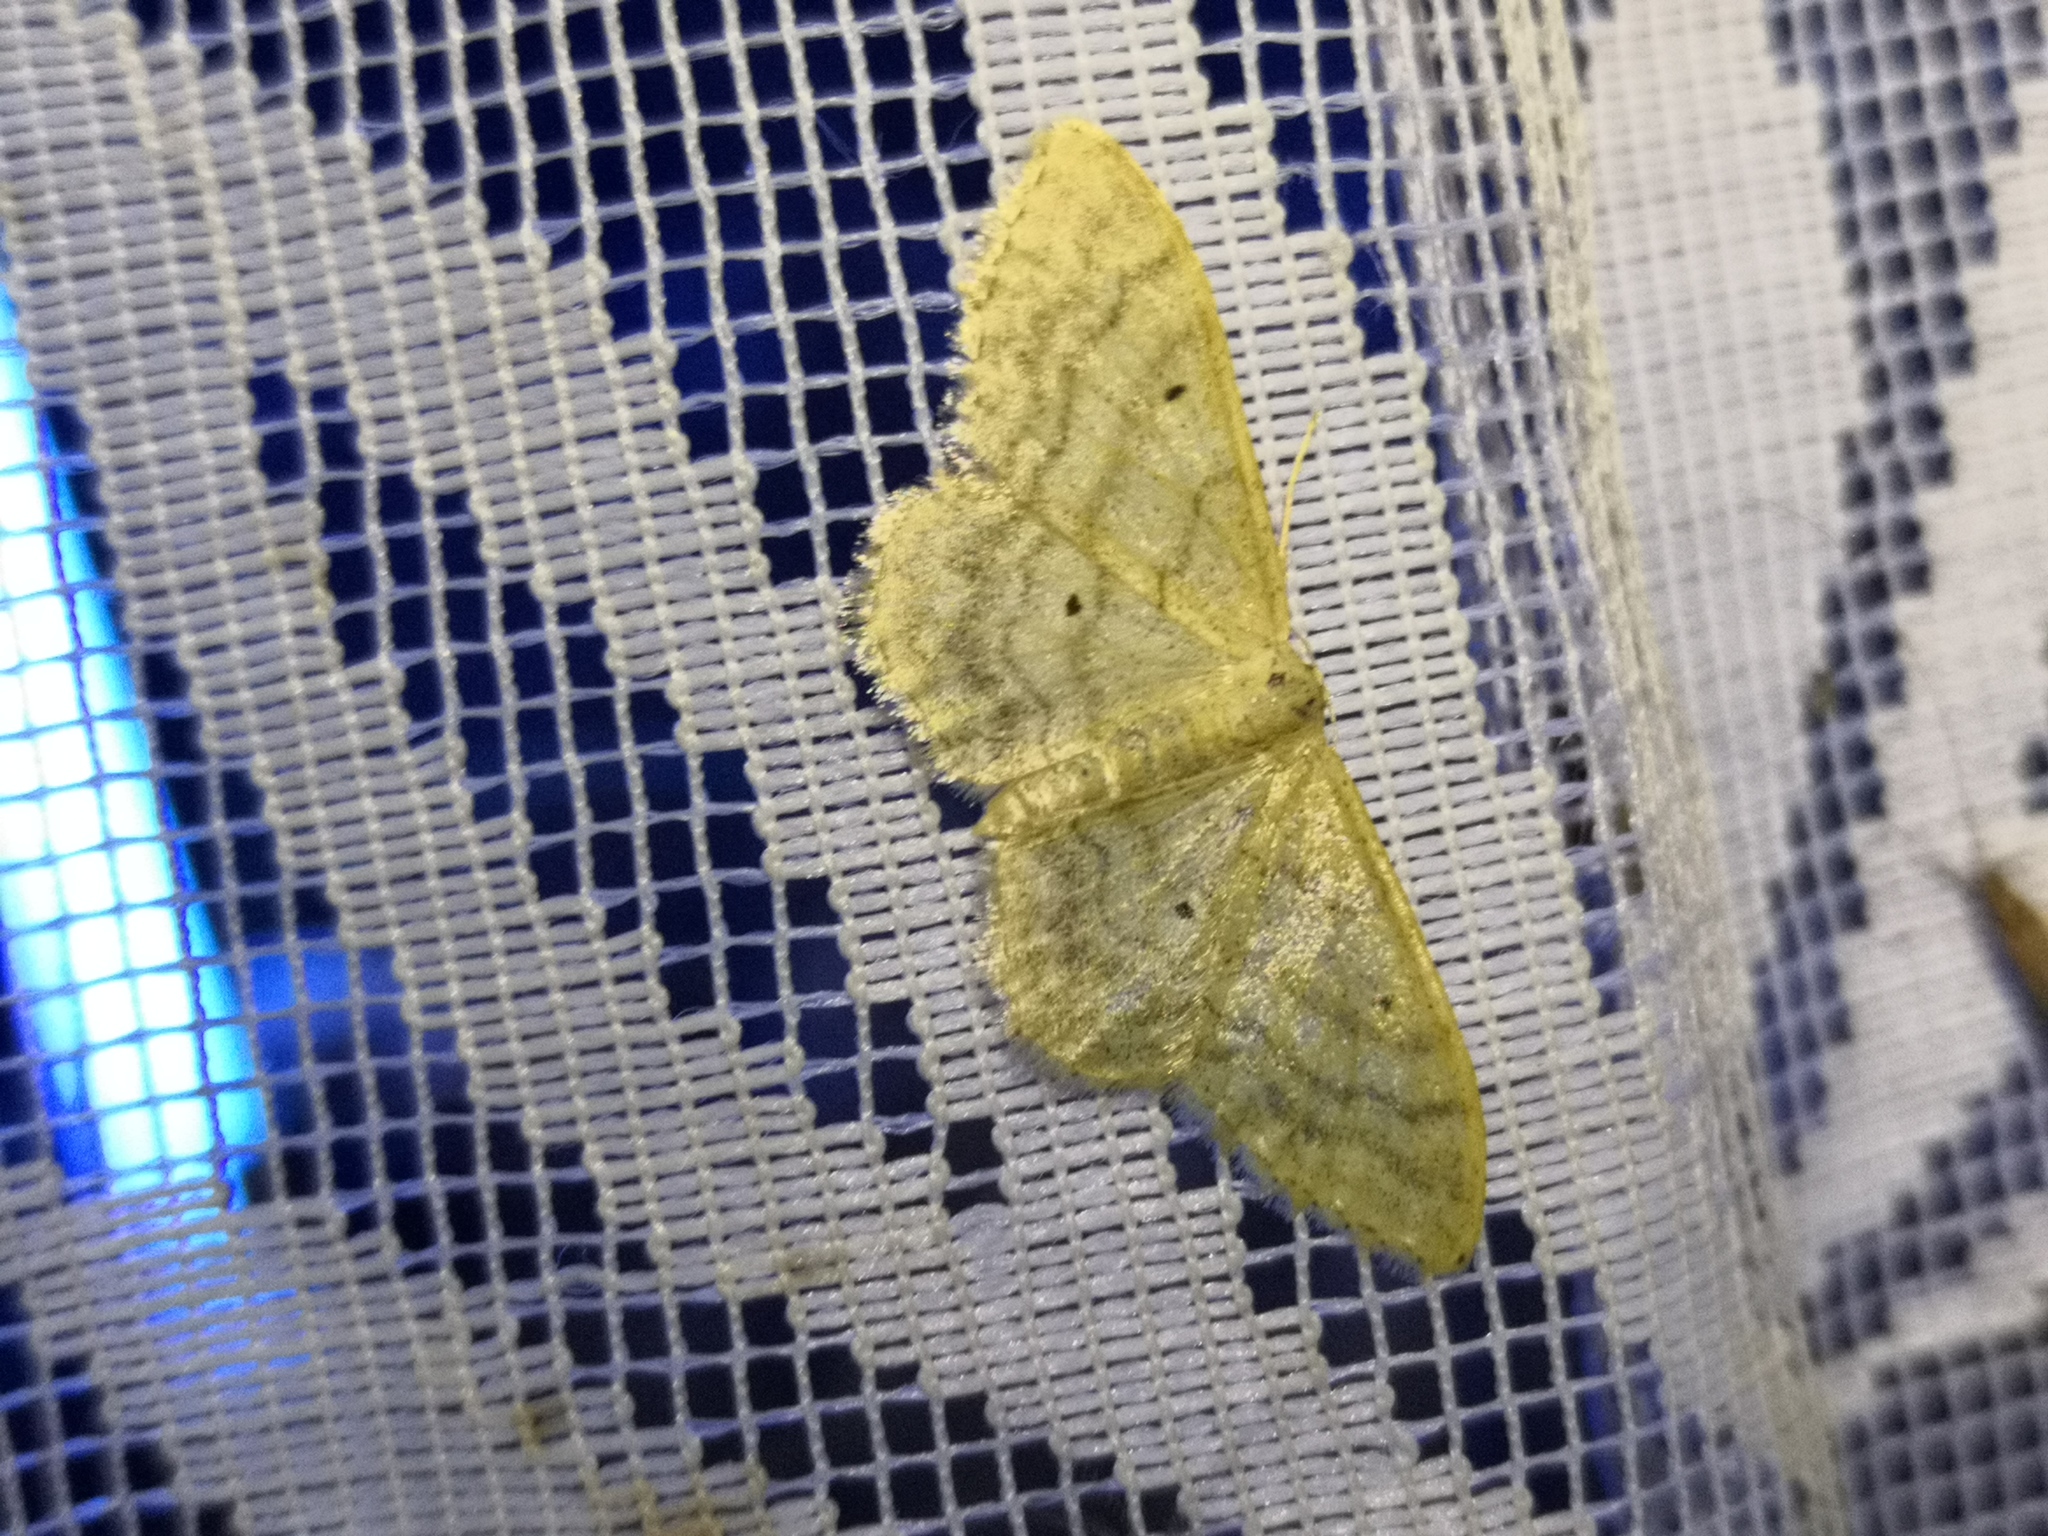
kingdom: Animalia
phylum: Arthropoda
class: Insecta
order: Lepidoptera
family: Geometridae
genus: Idaea
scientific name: Idaea maritimaria
